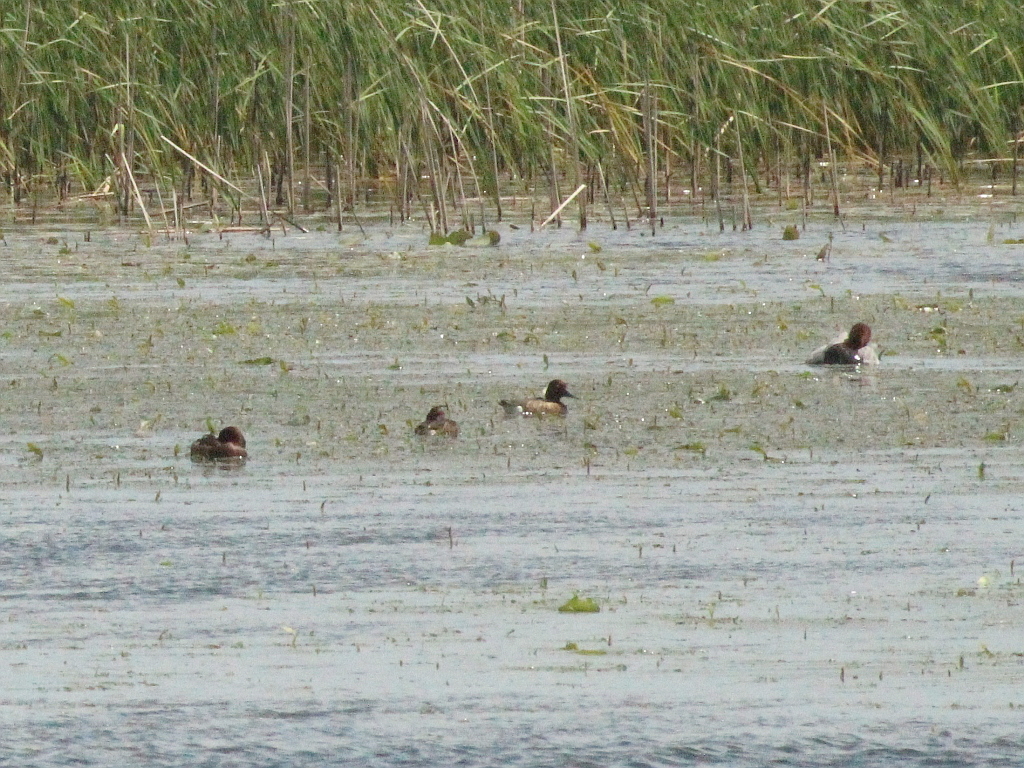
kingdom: Animalia
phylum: Chordata
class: Aves
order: Anseriformes
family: Anatidae
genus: Aythya
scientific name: Aythya nyroca
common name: Ferruginous duck
